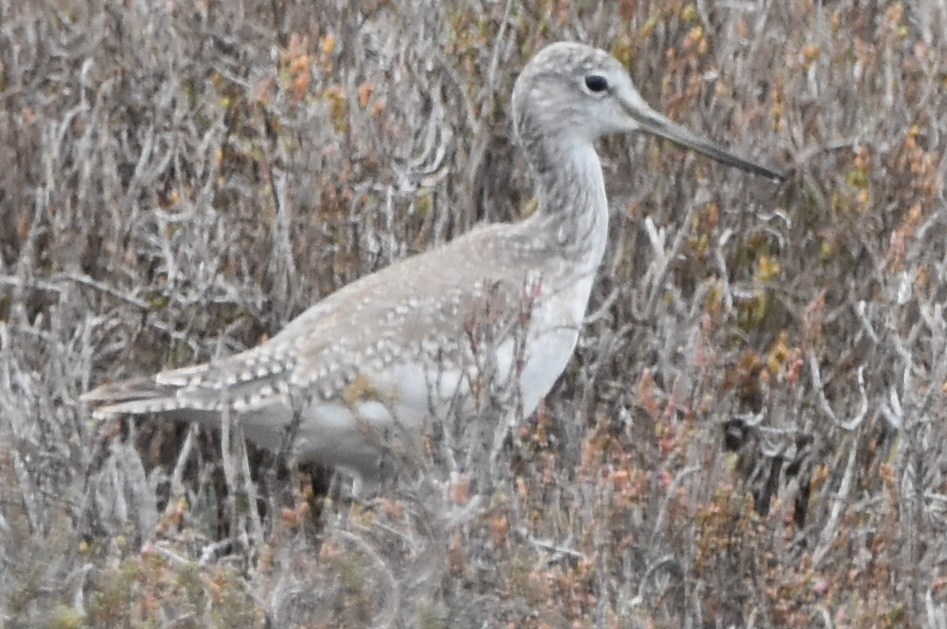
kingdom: Animalia
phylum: Chordata
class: Aves
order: Charadriiformes
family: Scolopacidae
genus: Tringa
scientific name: Tringa melanoleuca
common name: Greater yellowlegs
